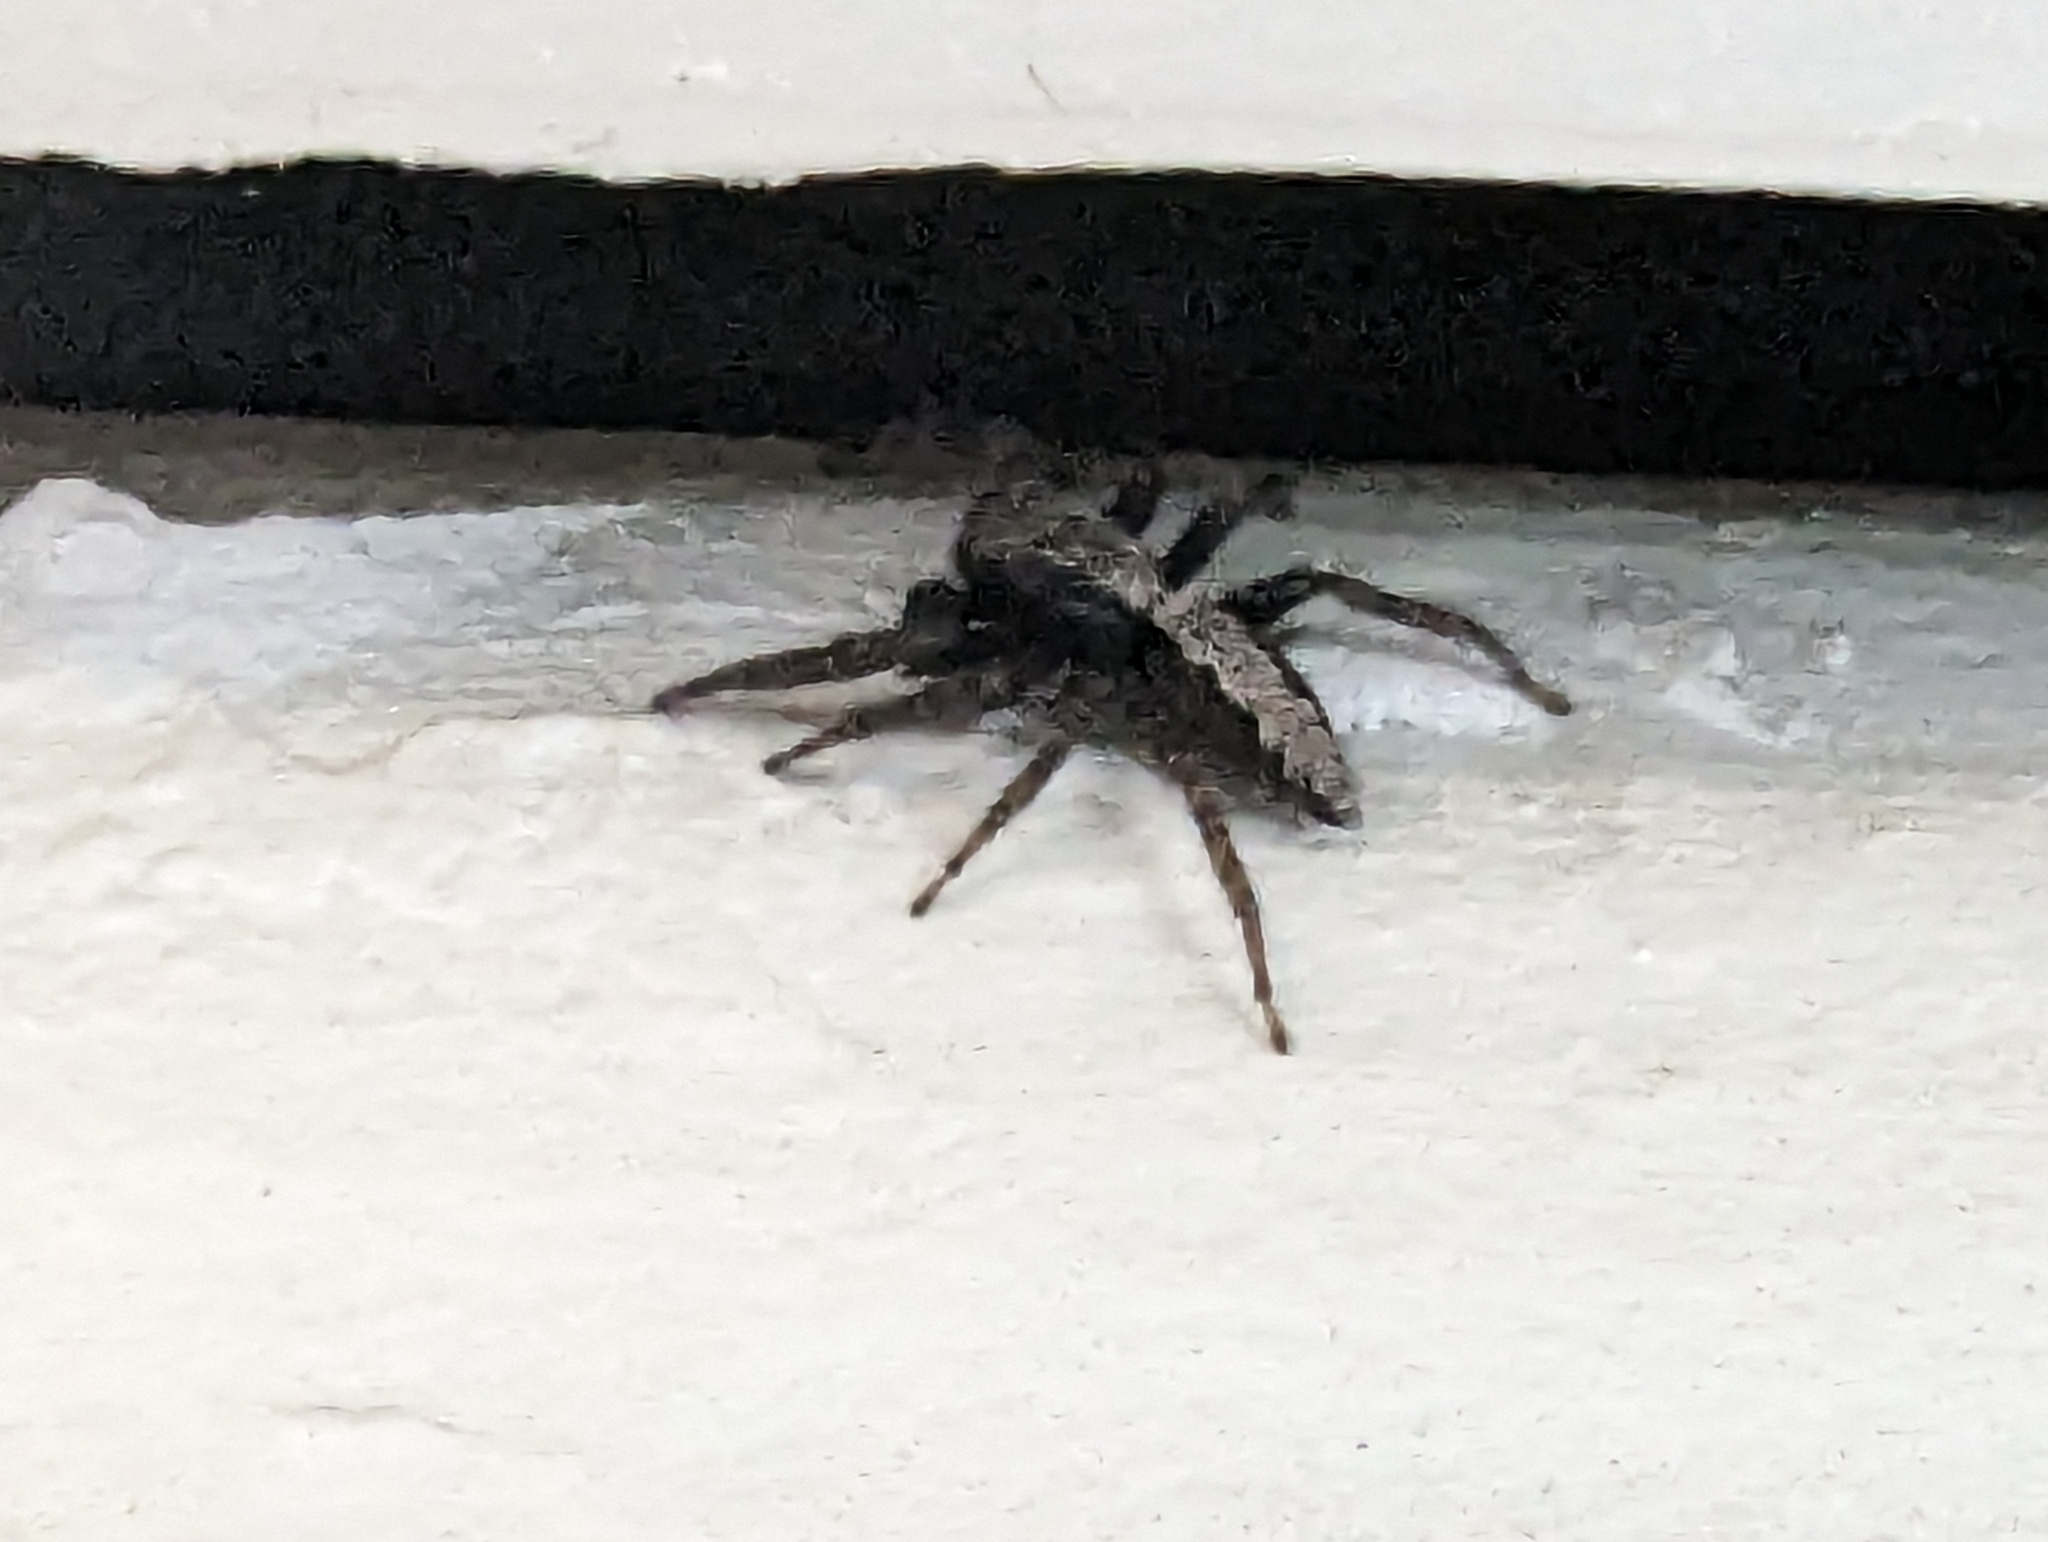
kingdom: Animalia
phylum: Arthropoda
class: Arachnida
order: Araneae
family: Salticidae
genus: Platycryptus
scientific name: Platycryptus californicus
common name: Jumping spiders
